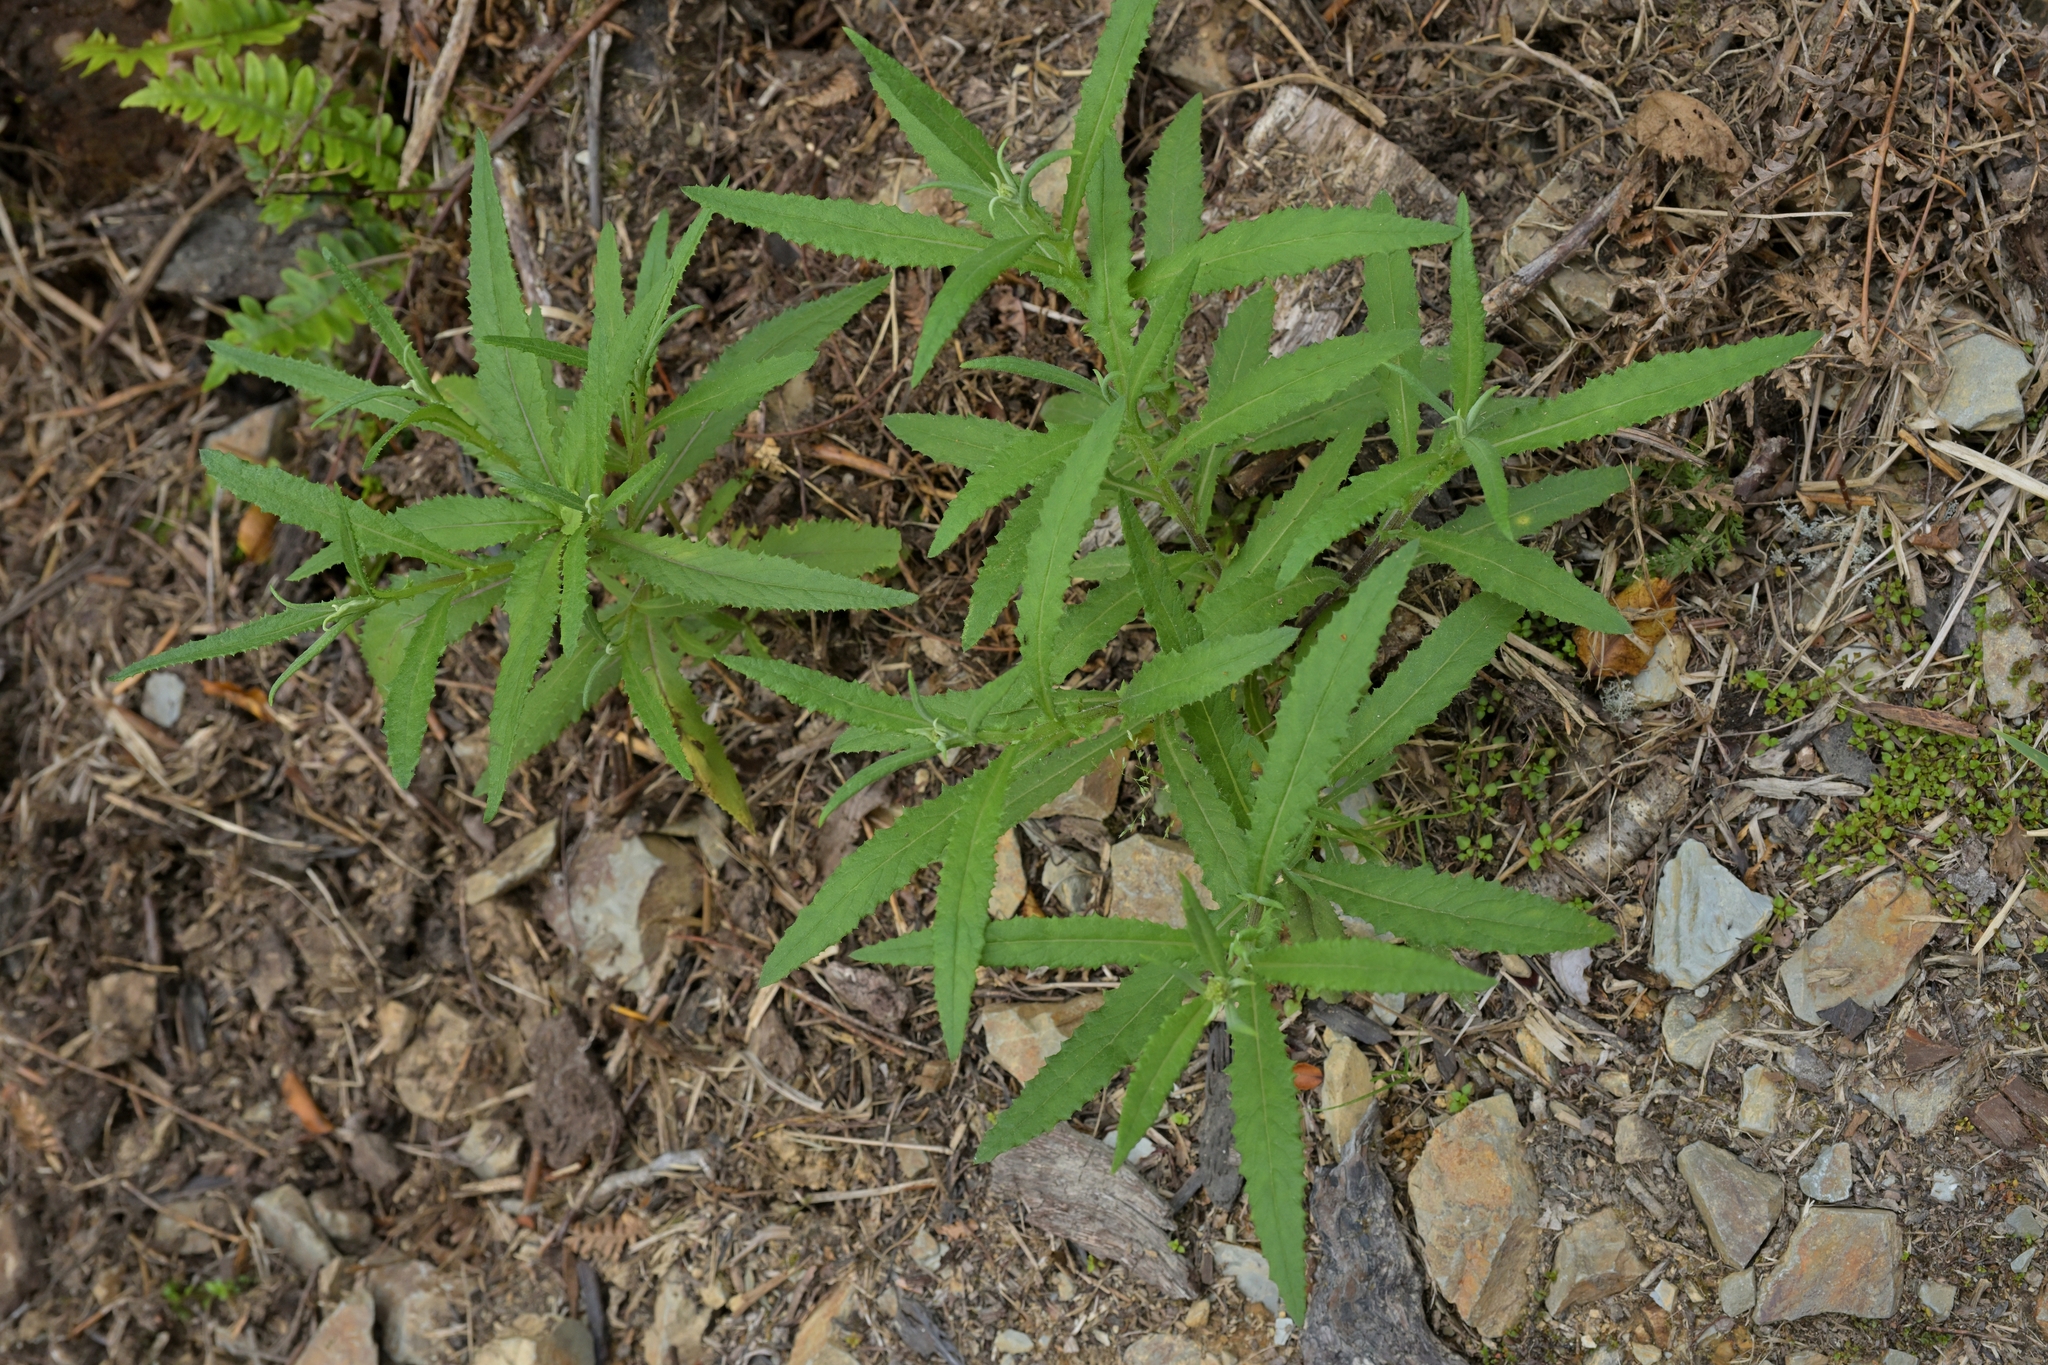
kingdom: Plantae
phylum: Tracheophyta
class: Magnoliopsida
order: Asterales
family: Asteraceae
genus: Senecio
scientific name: Senecio minimus
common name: Toothed fireweed
